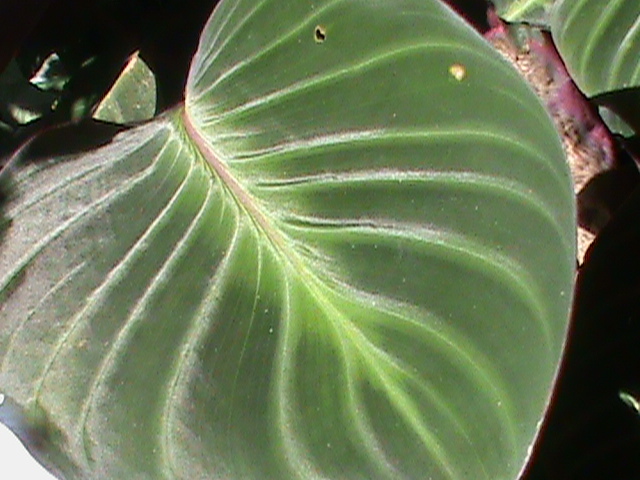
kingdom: Plantae
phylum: Tracheophyta
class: Liliopsida
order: Zingiberales
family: Marantaceae
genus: Goeppertia
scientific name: Goeppertia ecuadoriana
